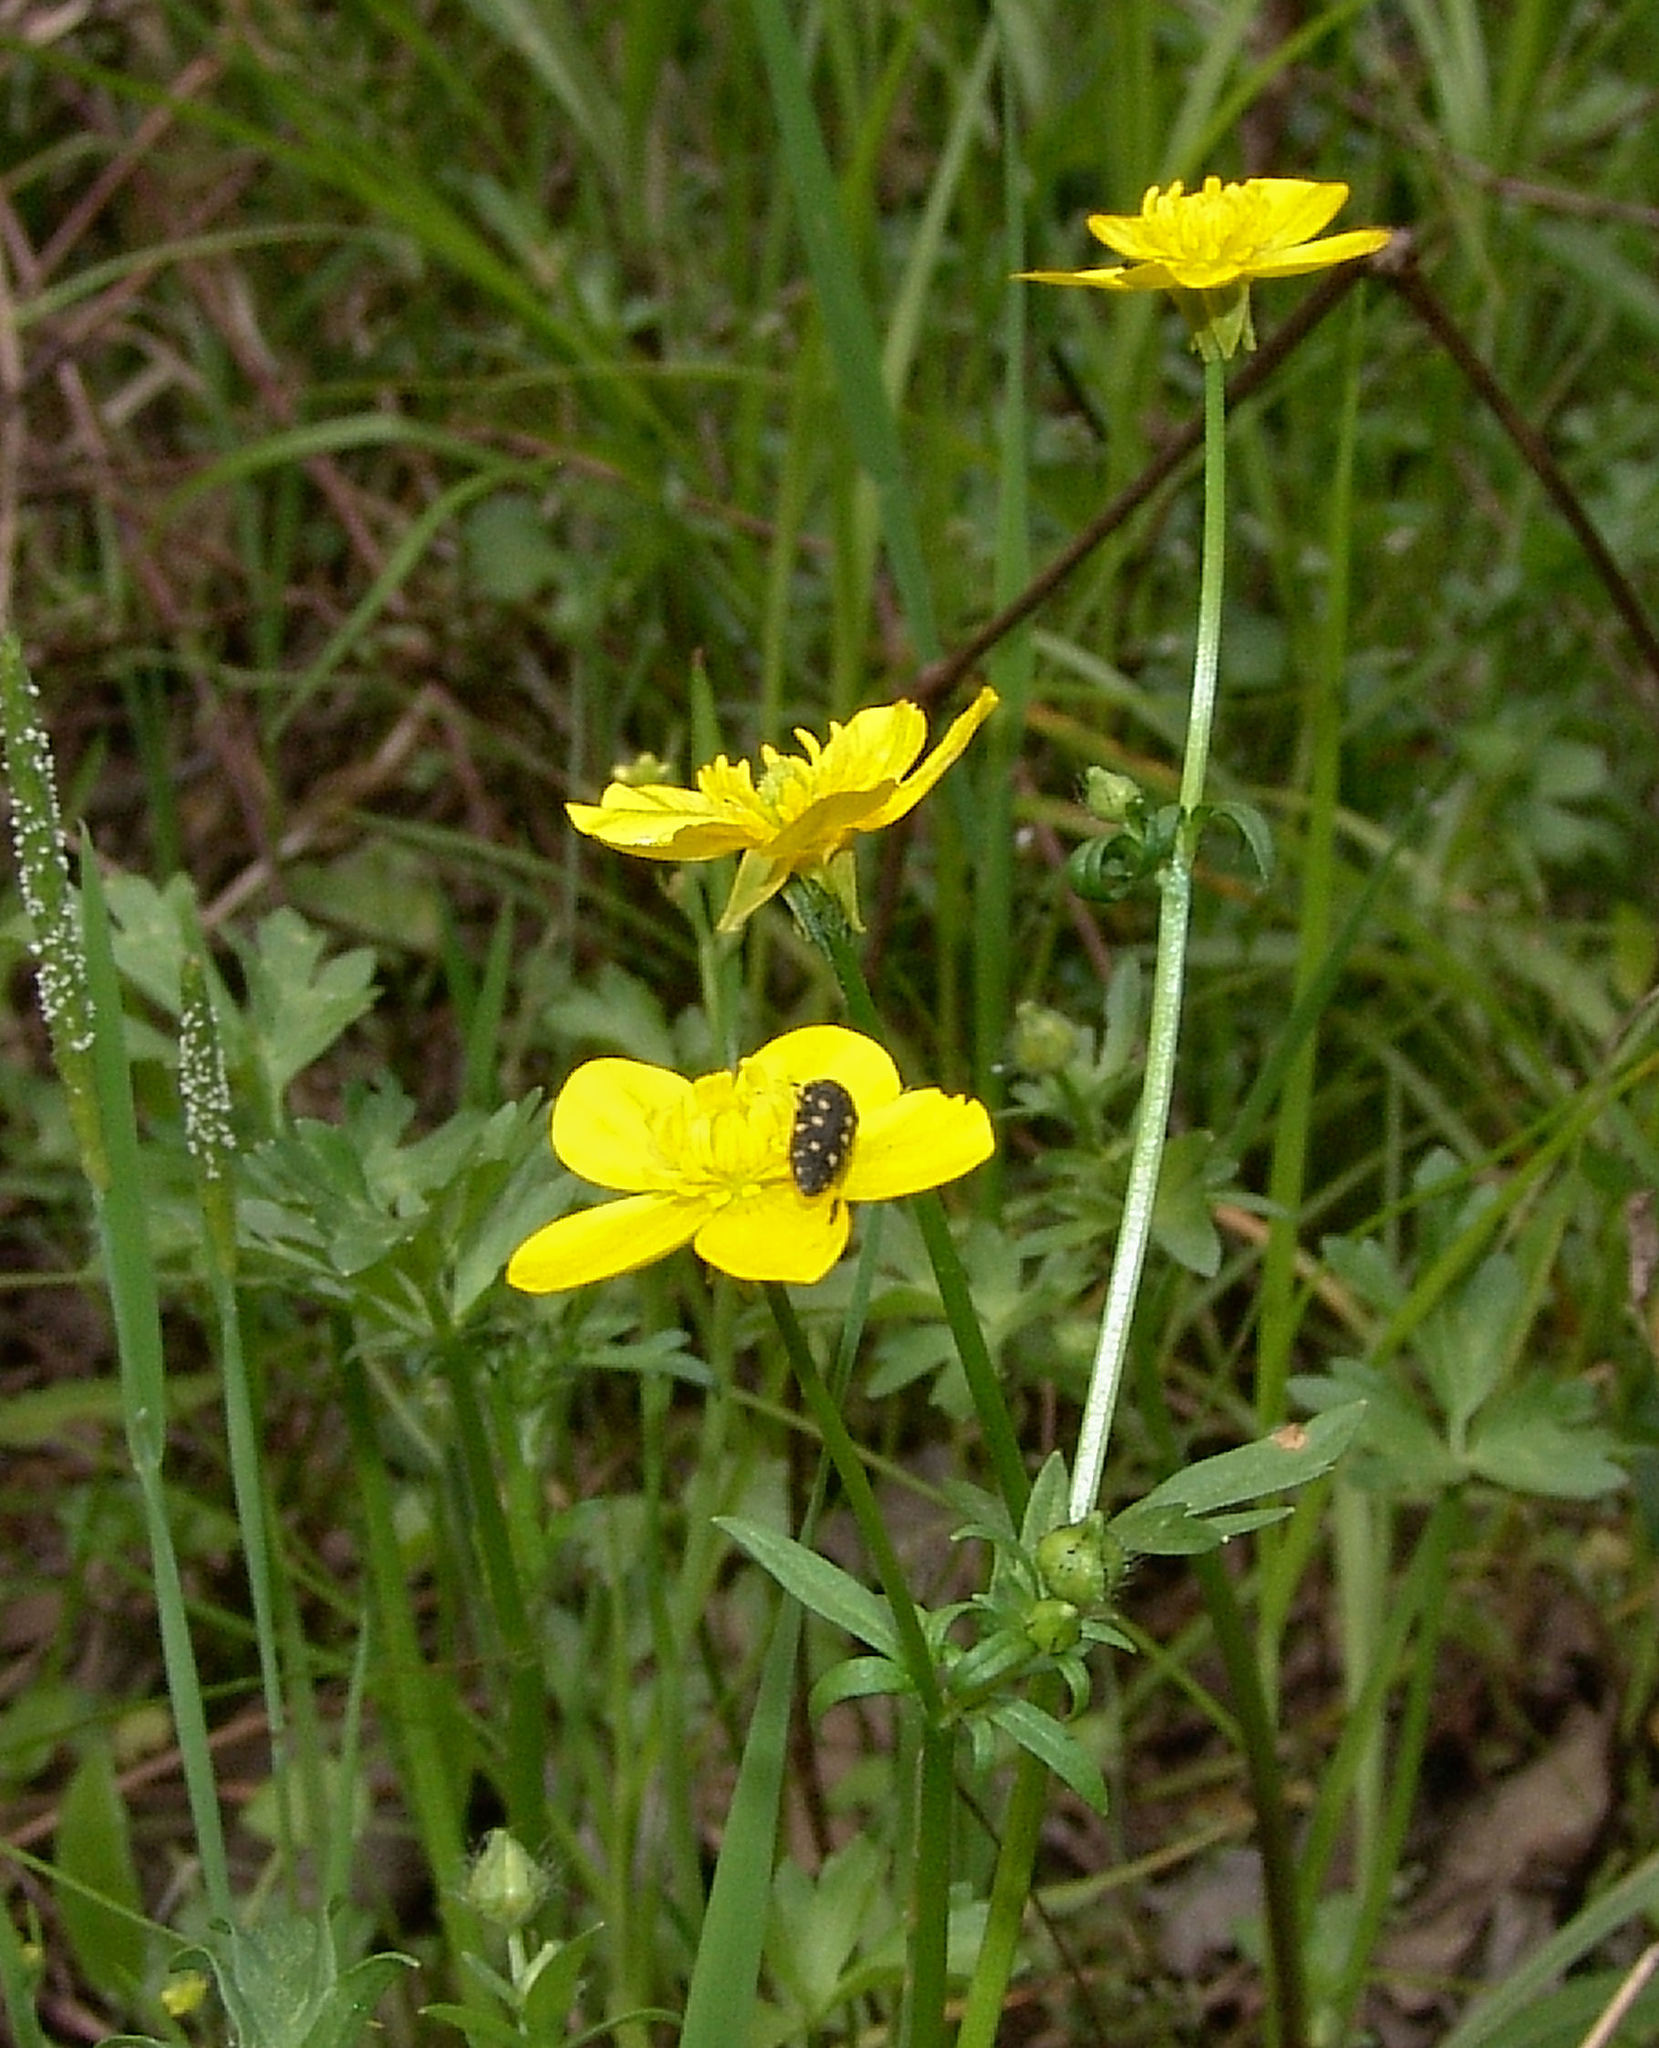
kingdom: Plantae
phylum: Tracheophyta
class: Magnoliopsida
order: Ranunculales
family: Ranunculaceae
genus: Ranunculus
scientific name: Ranunculus sardous
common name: Hairy buttercup
